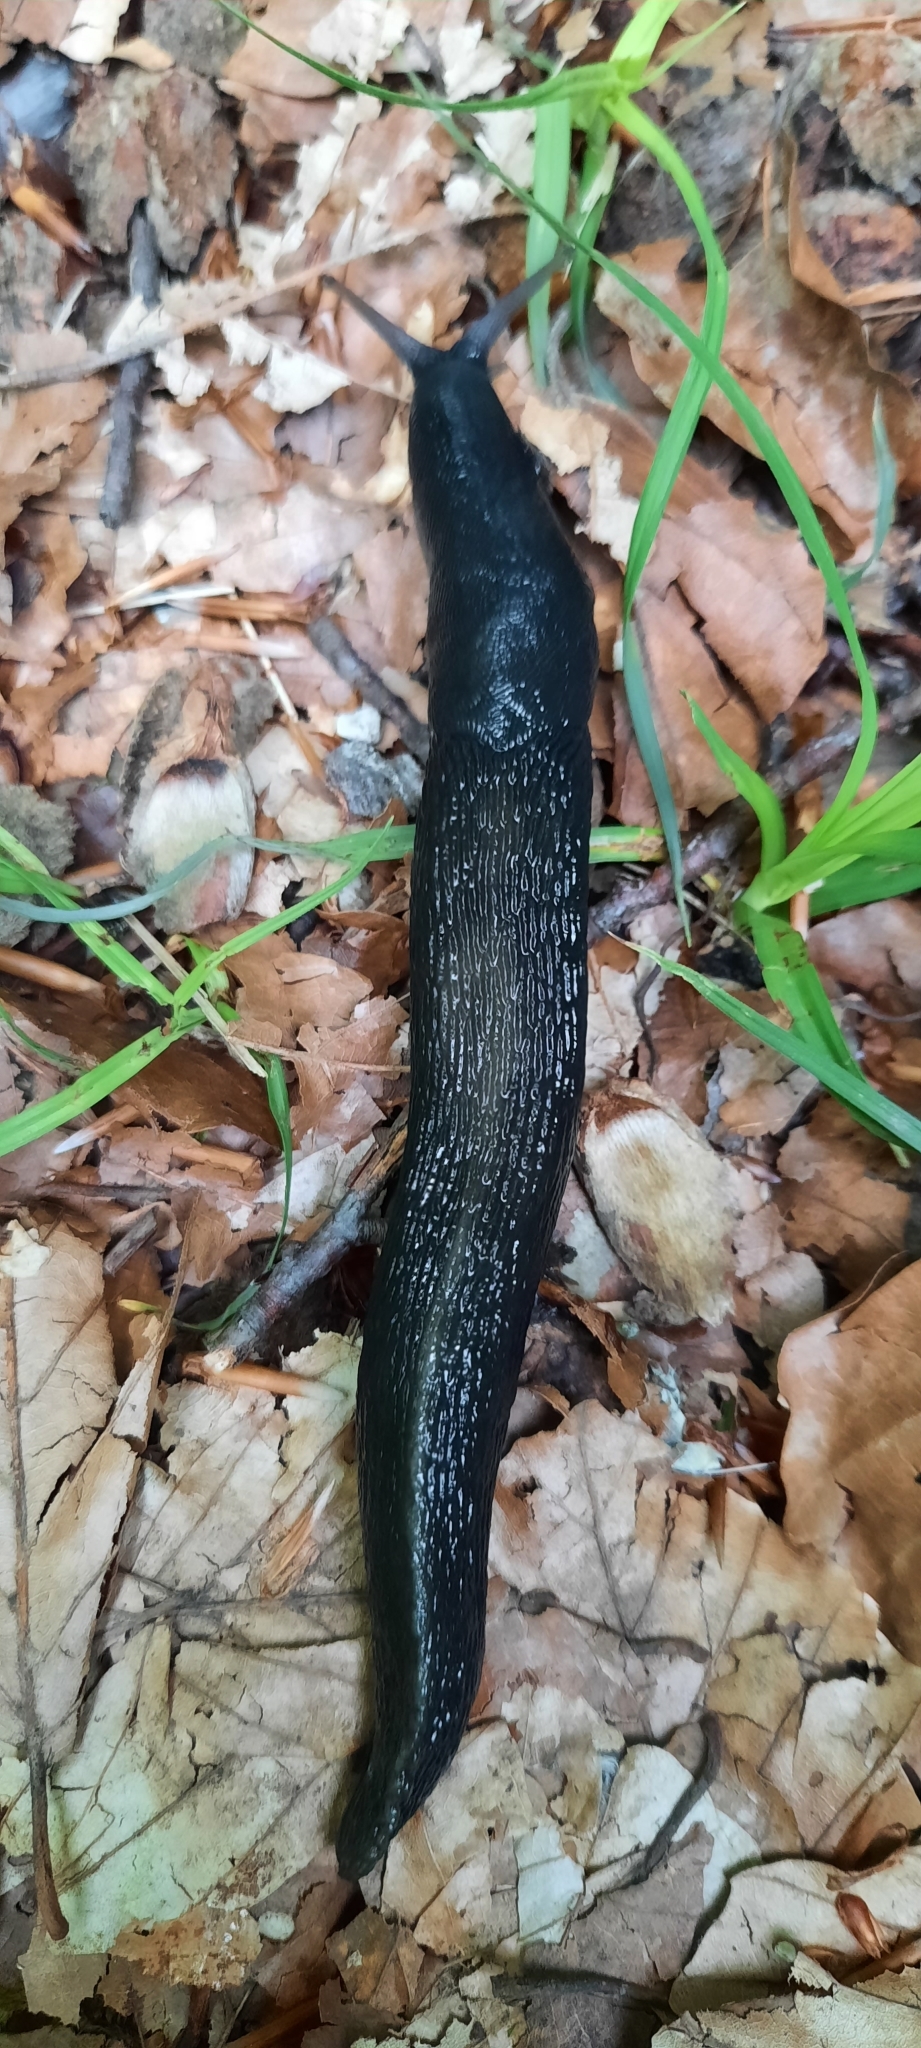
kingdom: Animalia
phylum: Mollusca
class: Gastropoda
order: Stylommatophora
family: Limacidae
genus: Limax
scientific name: Limax cinereoniger
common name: Ash-black slug
